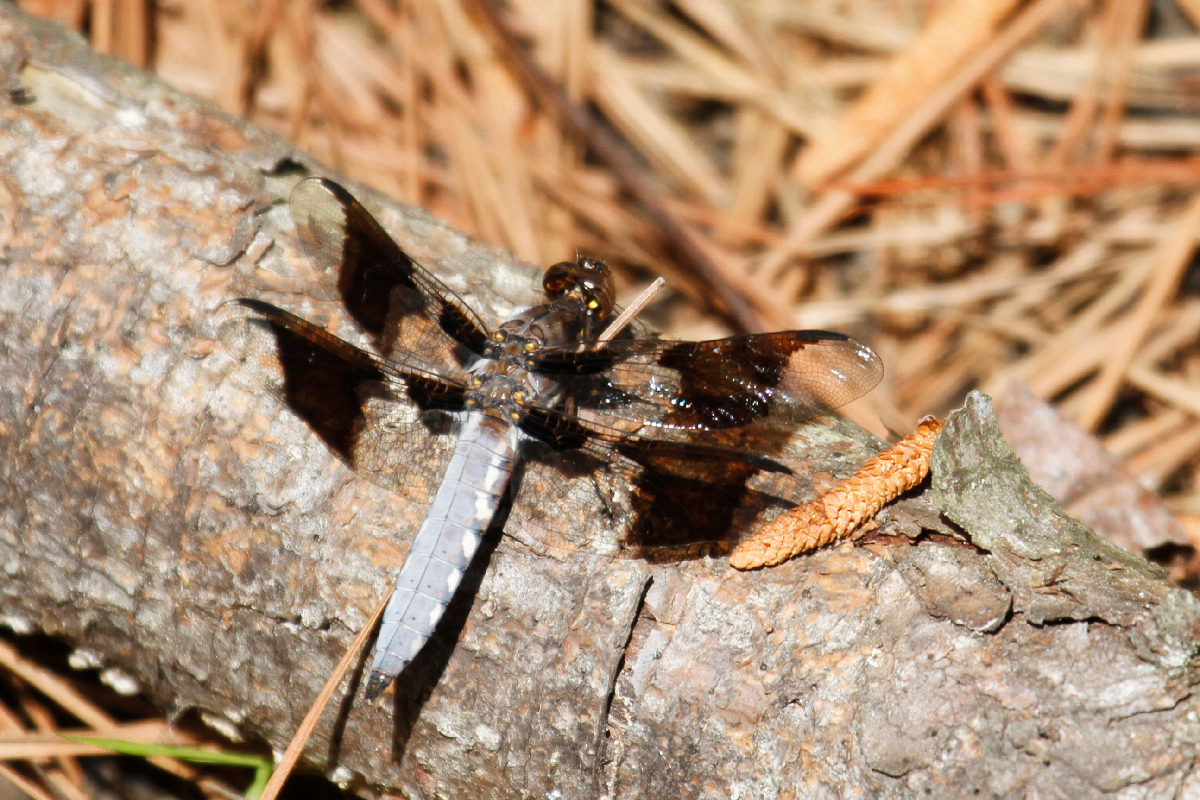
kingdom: Animalia
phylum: Arthropoda
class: Insecta
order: Odonata
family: Libellulidae
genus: Plathemis
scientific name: Plathemis lydia
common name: Common whitetail
